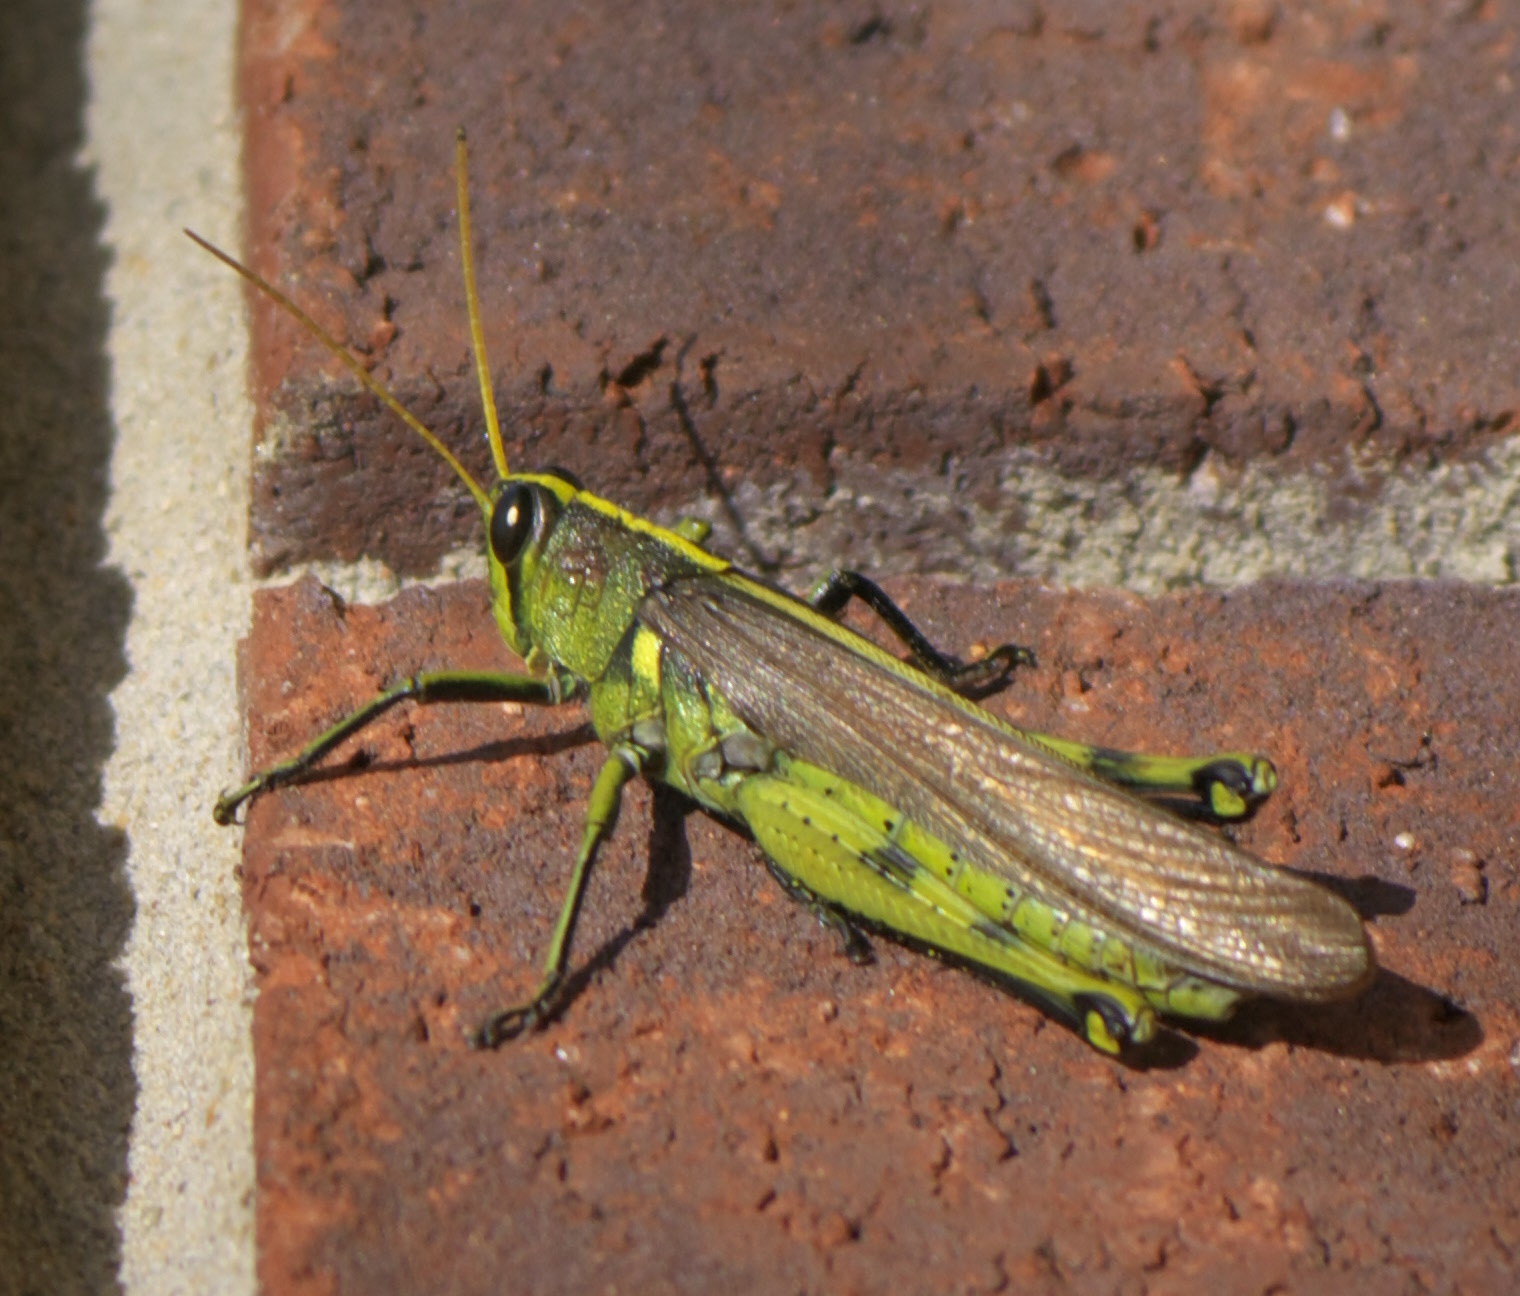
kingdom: Animalia
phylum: Arthropoda
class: Insecta
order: Orthoptera
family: Acrididae
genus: Schistocerca
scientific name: Schistocerca obscura
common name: Obscure bird grasshopper
